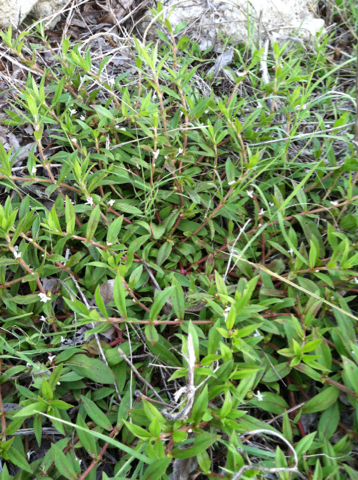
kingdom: Plantae
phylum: Tracheophyta
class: Magnoliopsida
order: Gentianales
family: Rubiaceae
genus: Diodia
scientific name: Diodia virginiana
